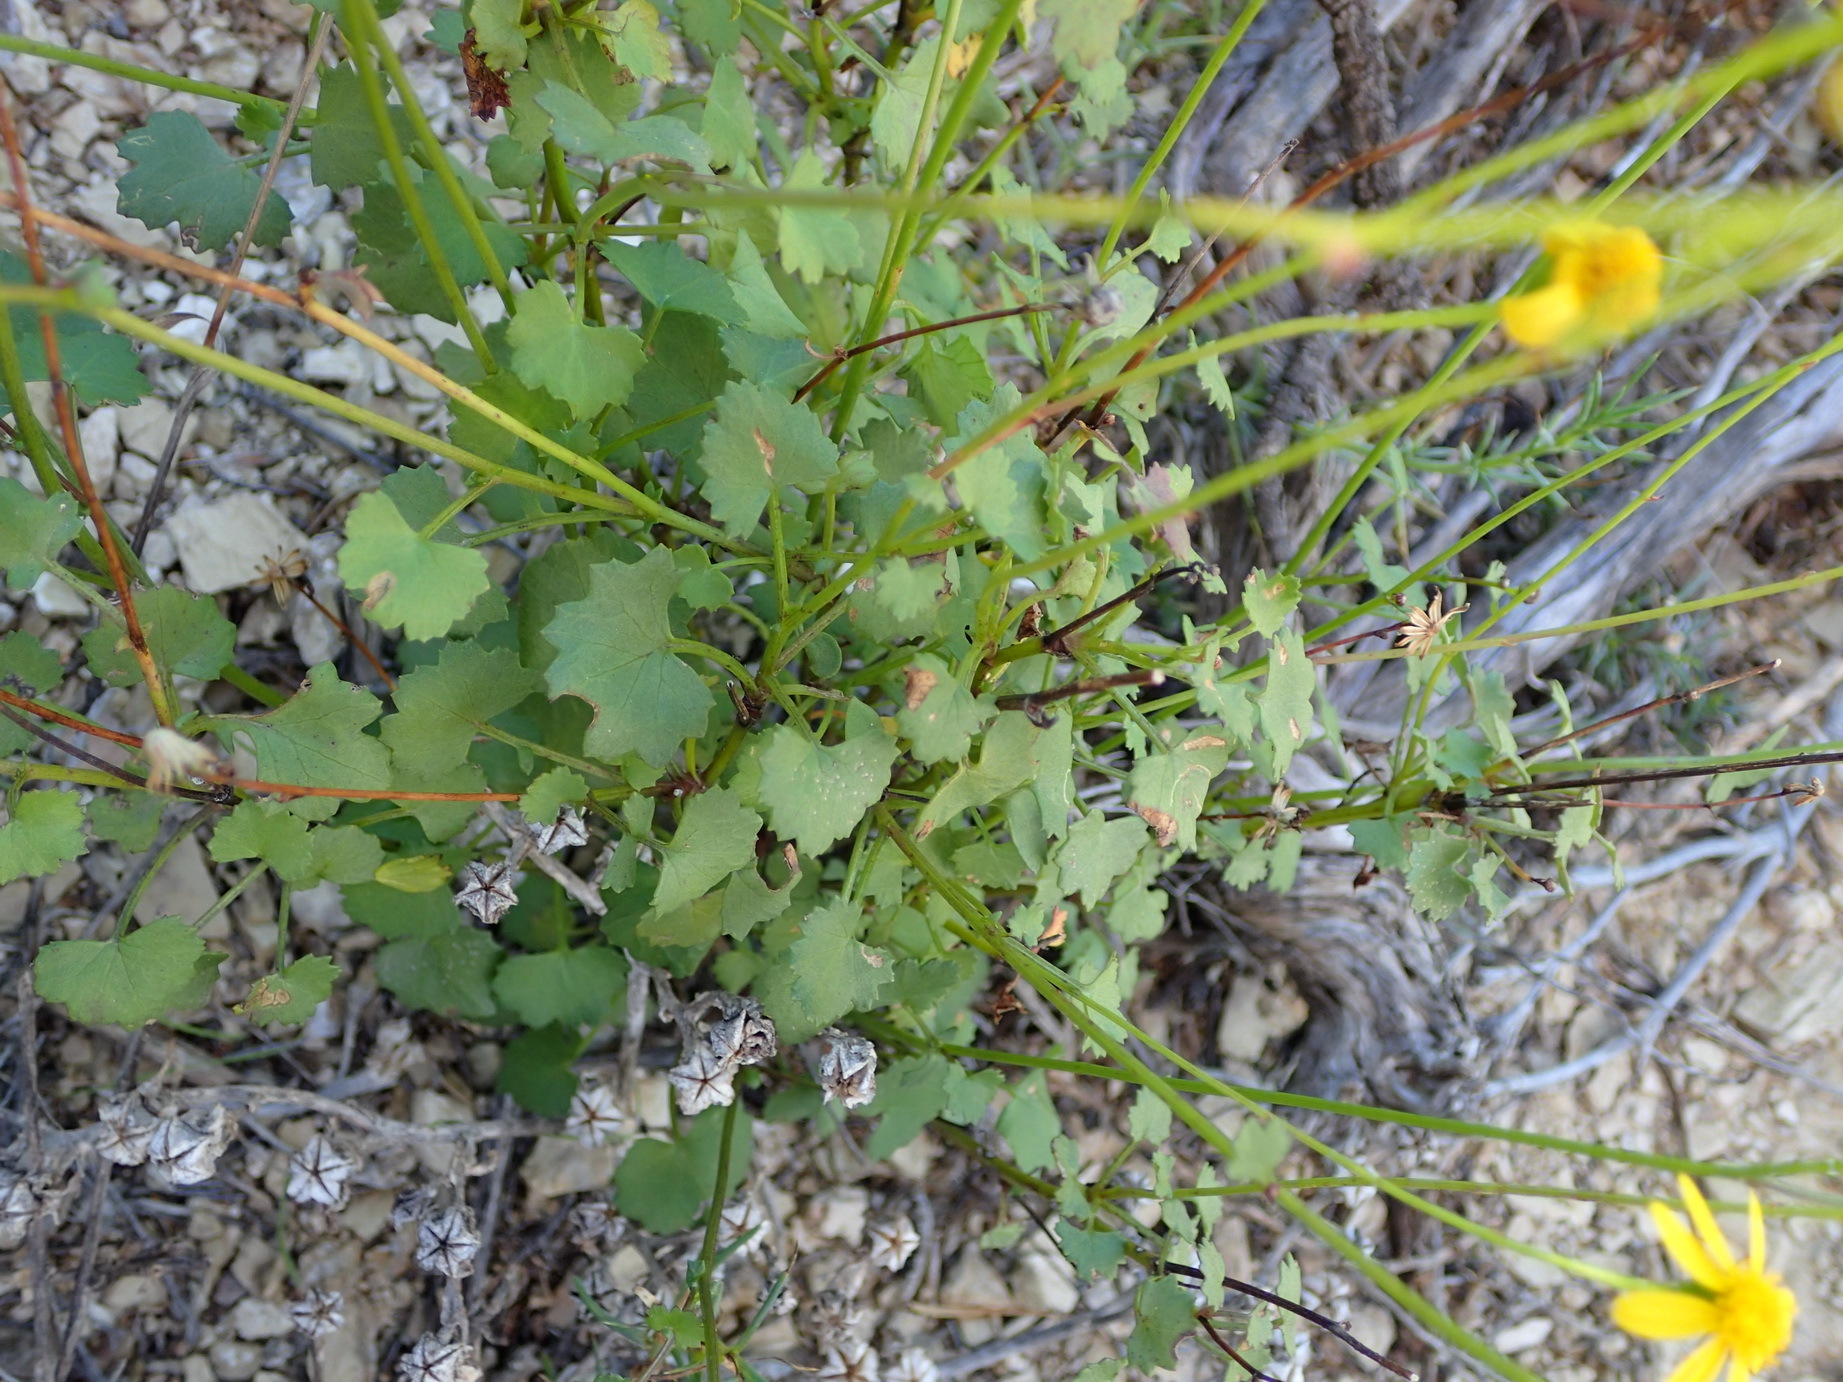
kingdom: Plantae
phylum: Tracheophyta
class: Magnoliopsida
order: Asterales
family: Asteraceae
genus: Cineraria
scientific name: Cineraria lobata
